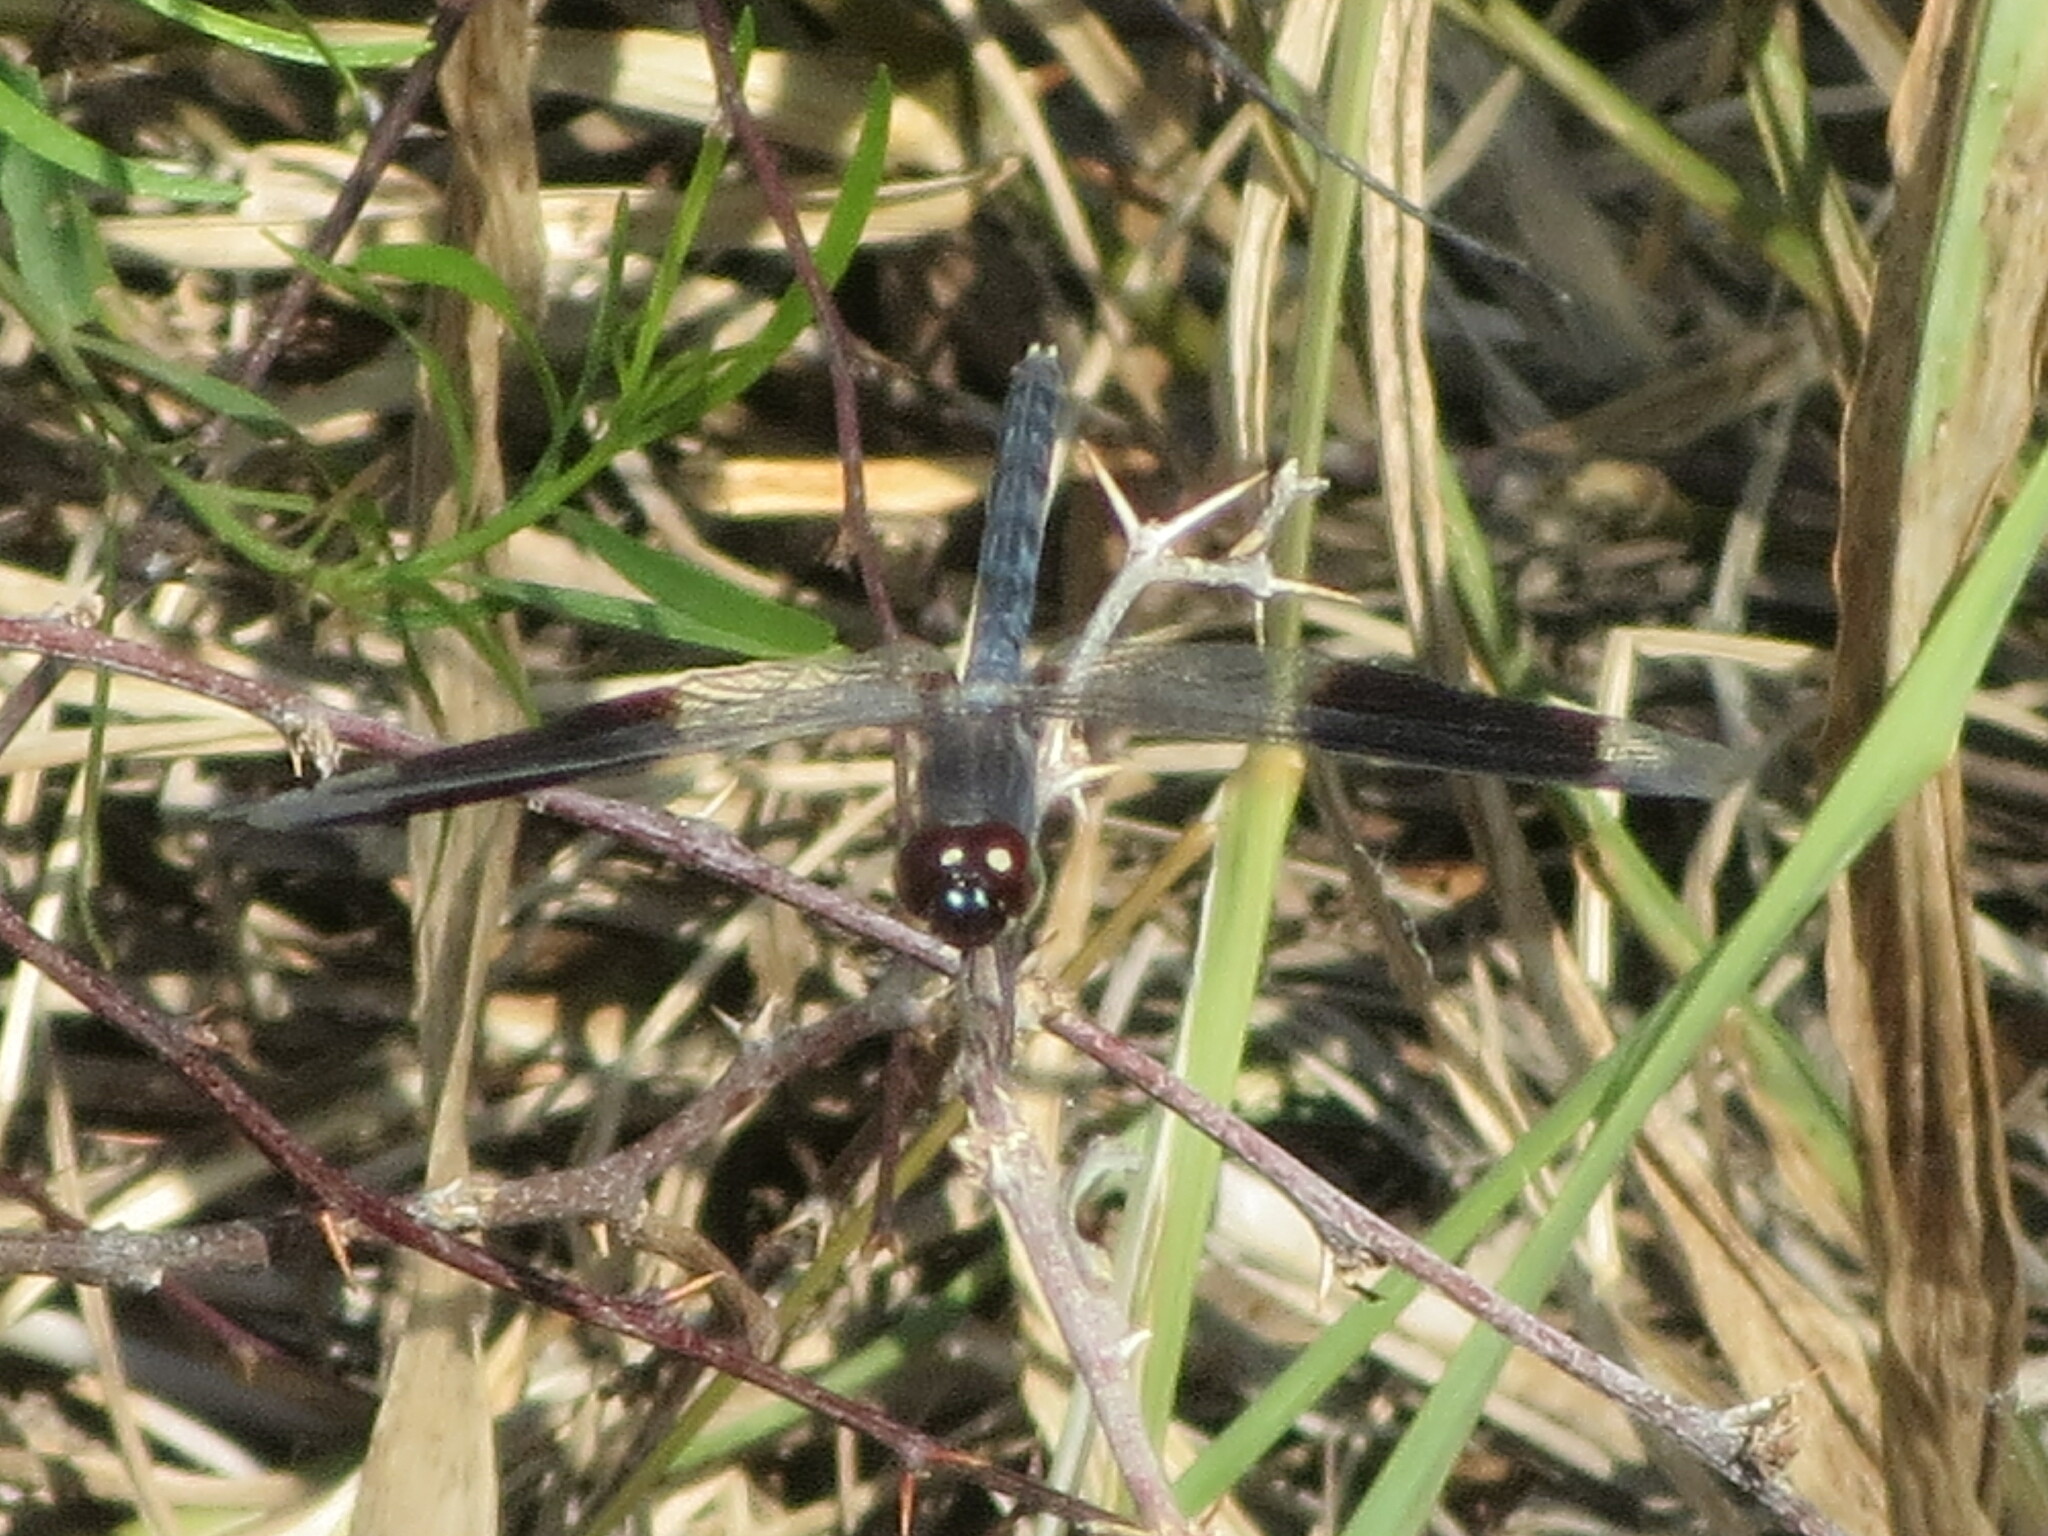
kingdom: Animalia
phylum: Arthropoda
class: Insecta
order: Odonata
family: Libellulidae
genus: Erythrodiplax
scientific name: Erythrodiplax umbrata
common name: Band-winged dragonlet
